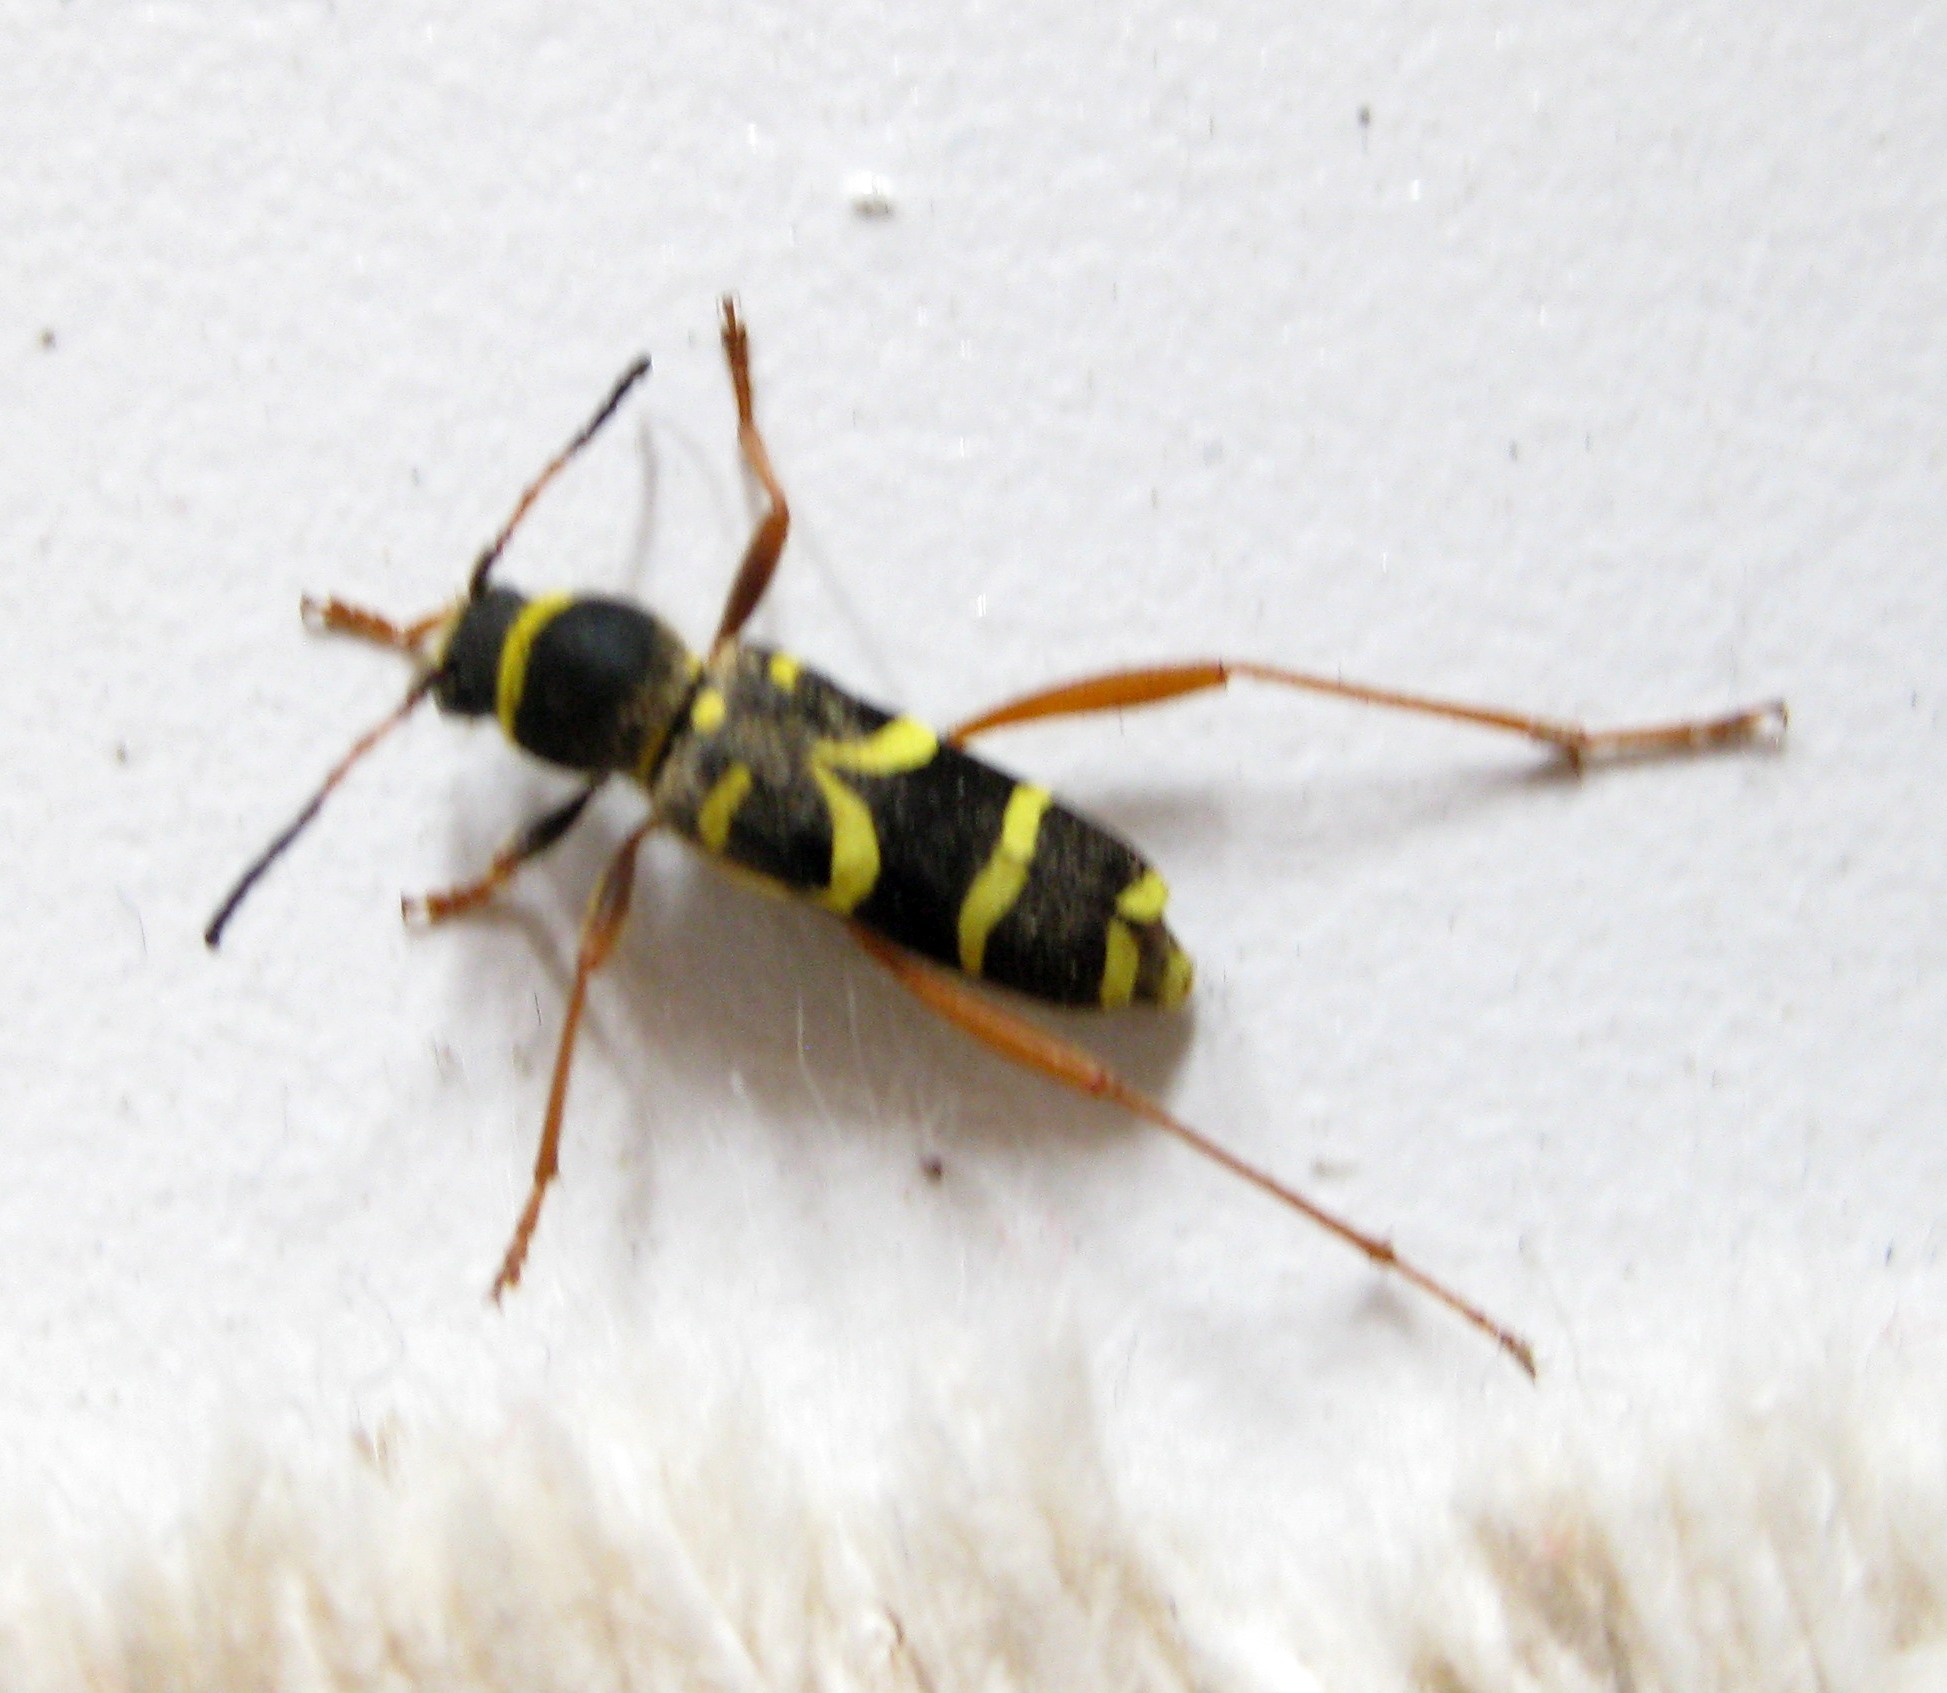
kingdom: Animalia
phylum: Arthropoda
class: Insecta
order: Coleoptera
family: Cerambycidae
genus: Clytus
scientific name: Clytus arietis
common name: Wasp beetle
